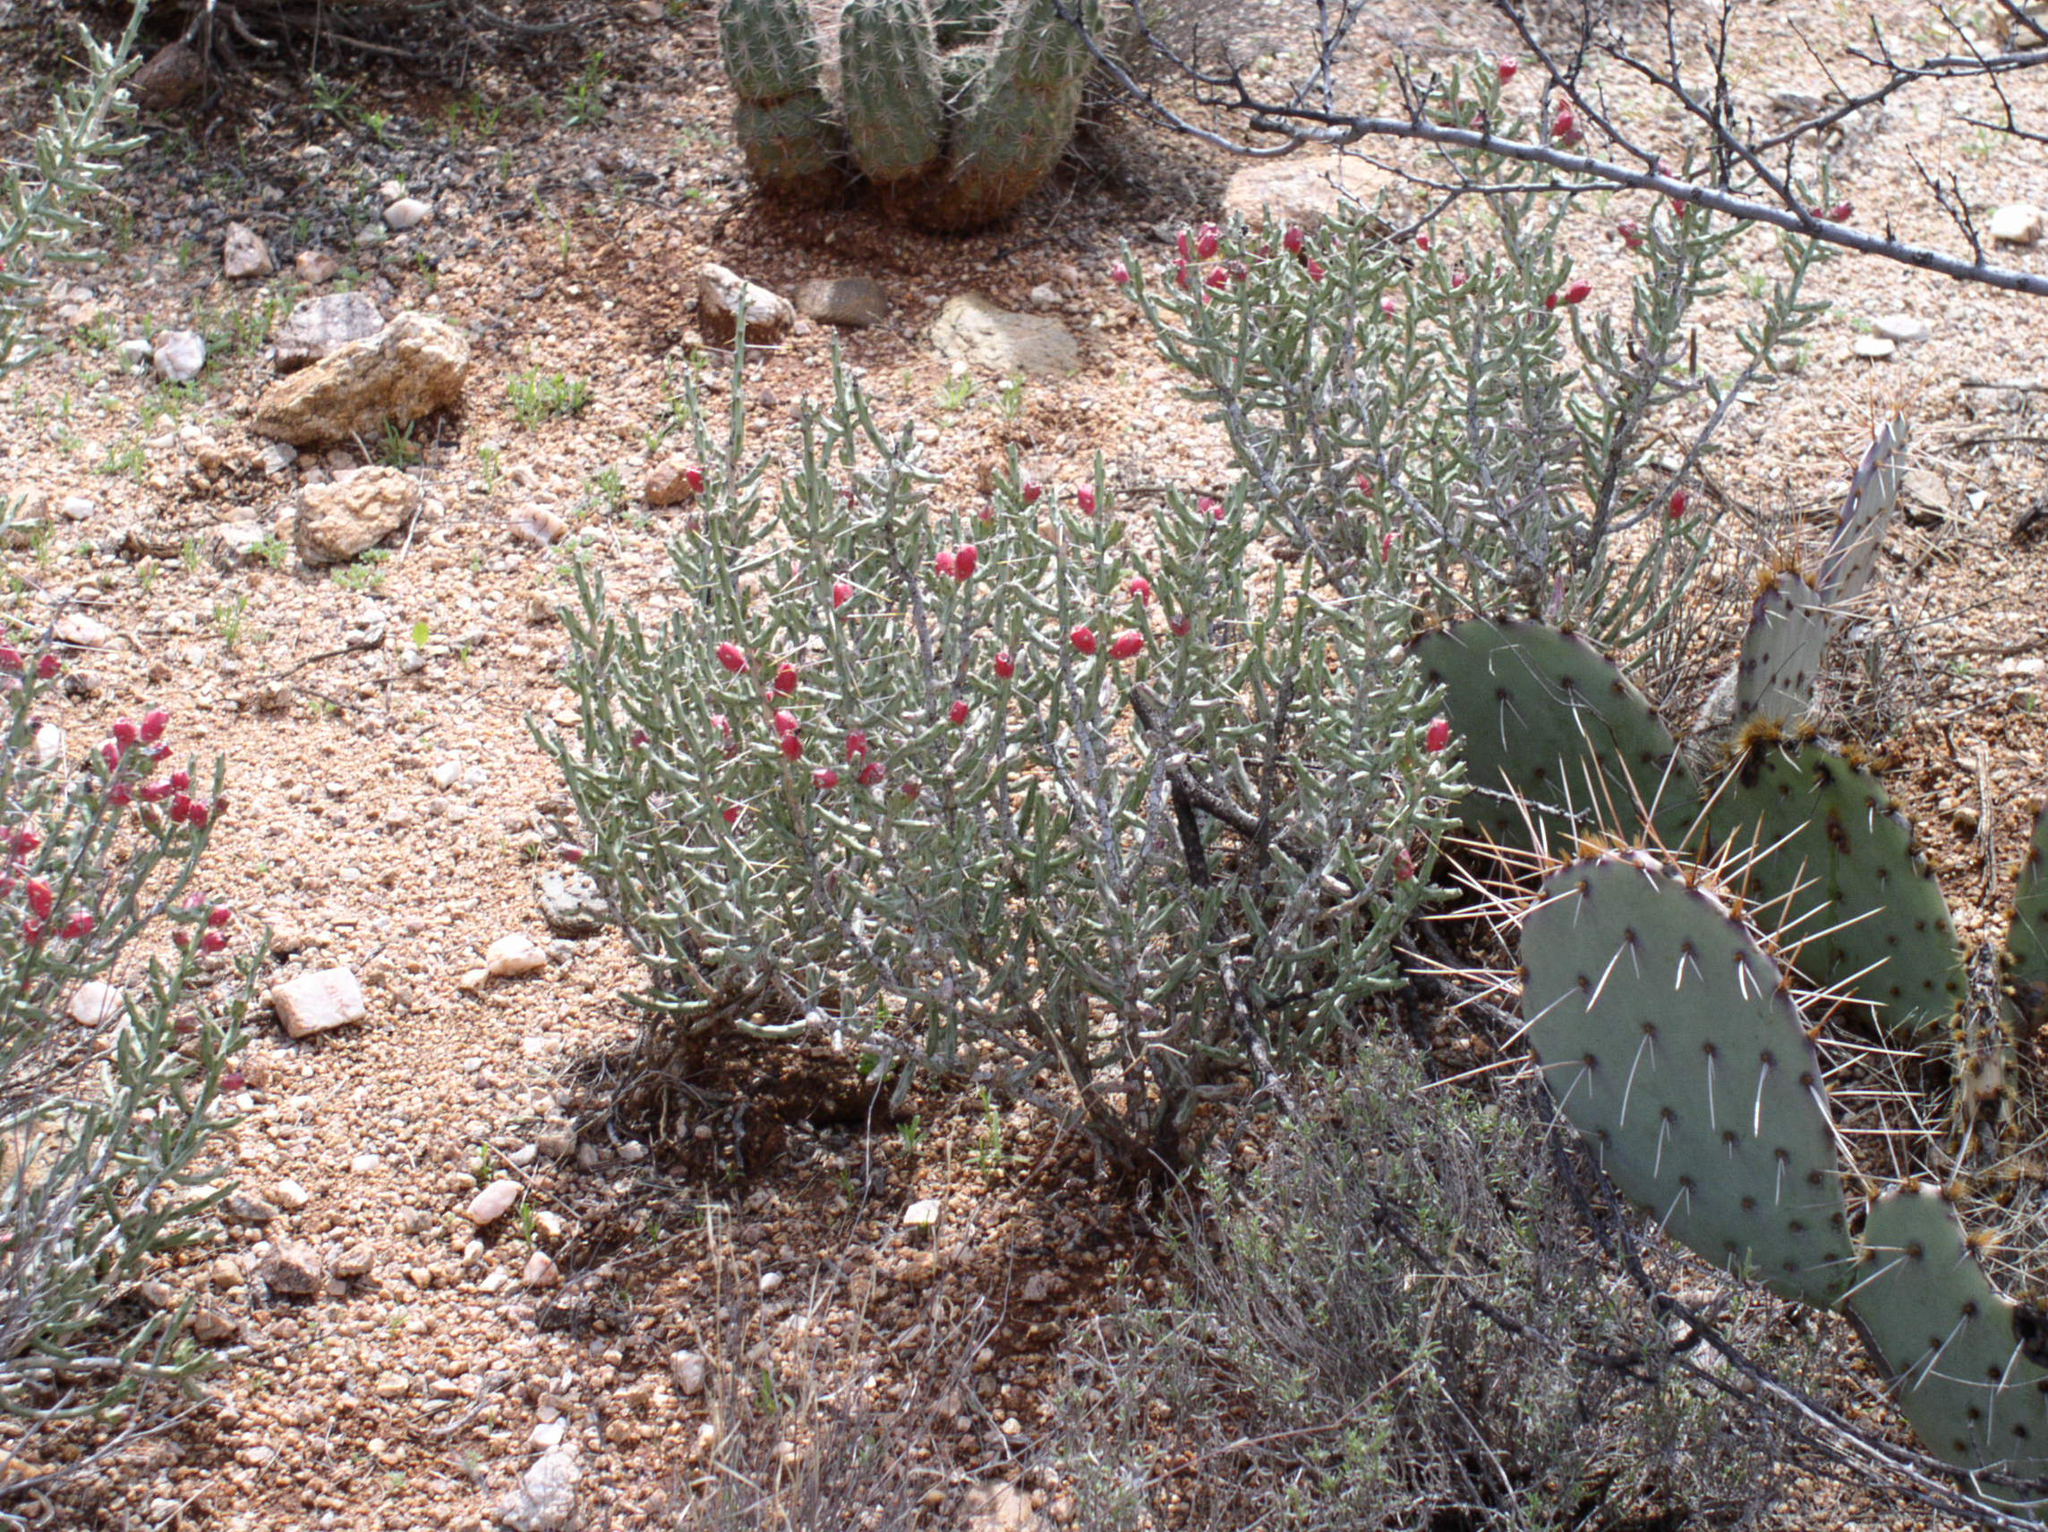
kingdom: Plantae
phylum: Tracheophyta
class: Magnoliopsida
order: Caryophyllales
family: Cactaceae
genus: Cylindropuntia
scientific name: Cylindropuntia leptocaulis
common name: Christmas cactus
